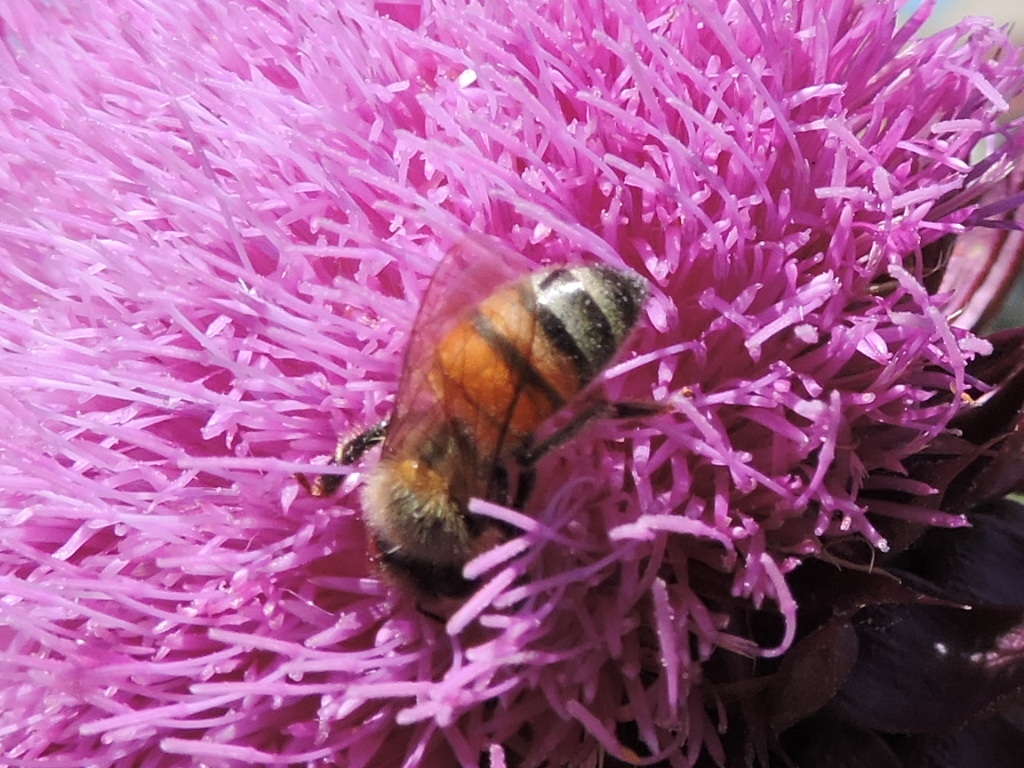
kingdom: Animalia
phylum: Arthropoda
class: Insecta
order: Hymenoptera
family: Apidae
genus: Apis
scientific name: Apis mellifera
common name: Honey bee
